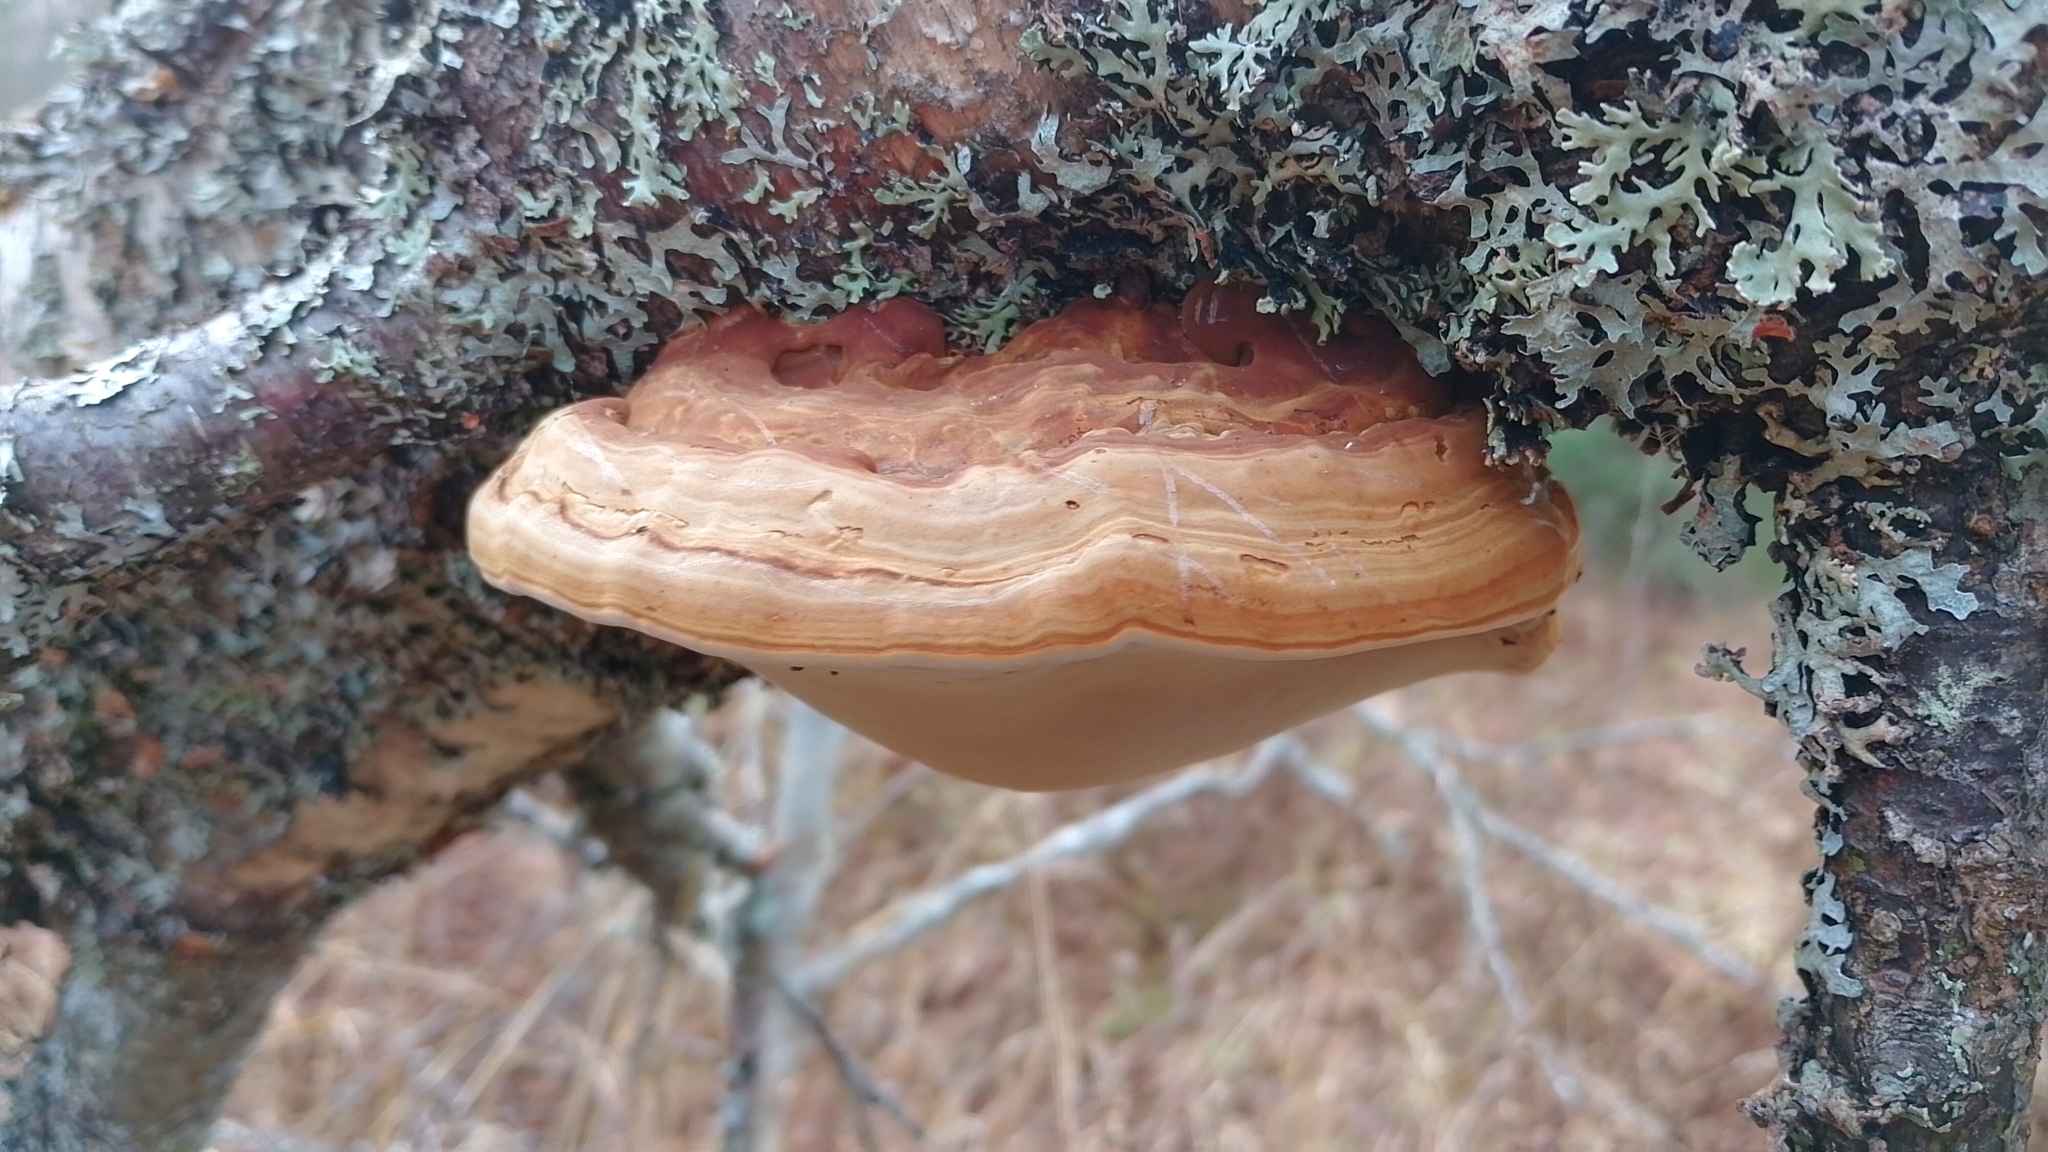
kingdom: Fungi
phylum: Basidiomycota
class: Agaricomycetes
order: Polyporales
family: Polyporaceae
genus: Fomes
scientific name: Fomes fomentarius
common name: Hoof fungus
